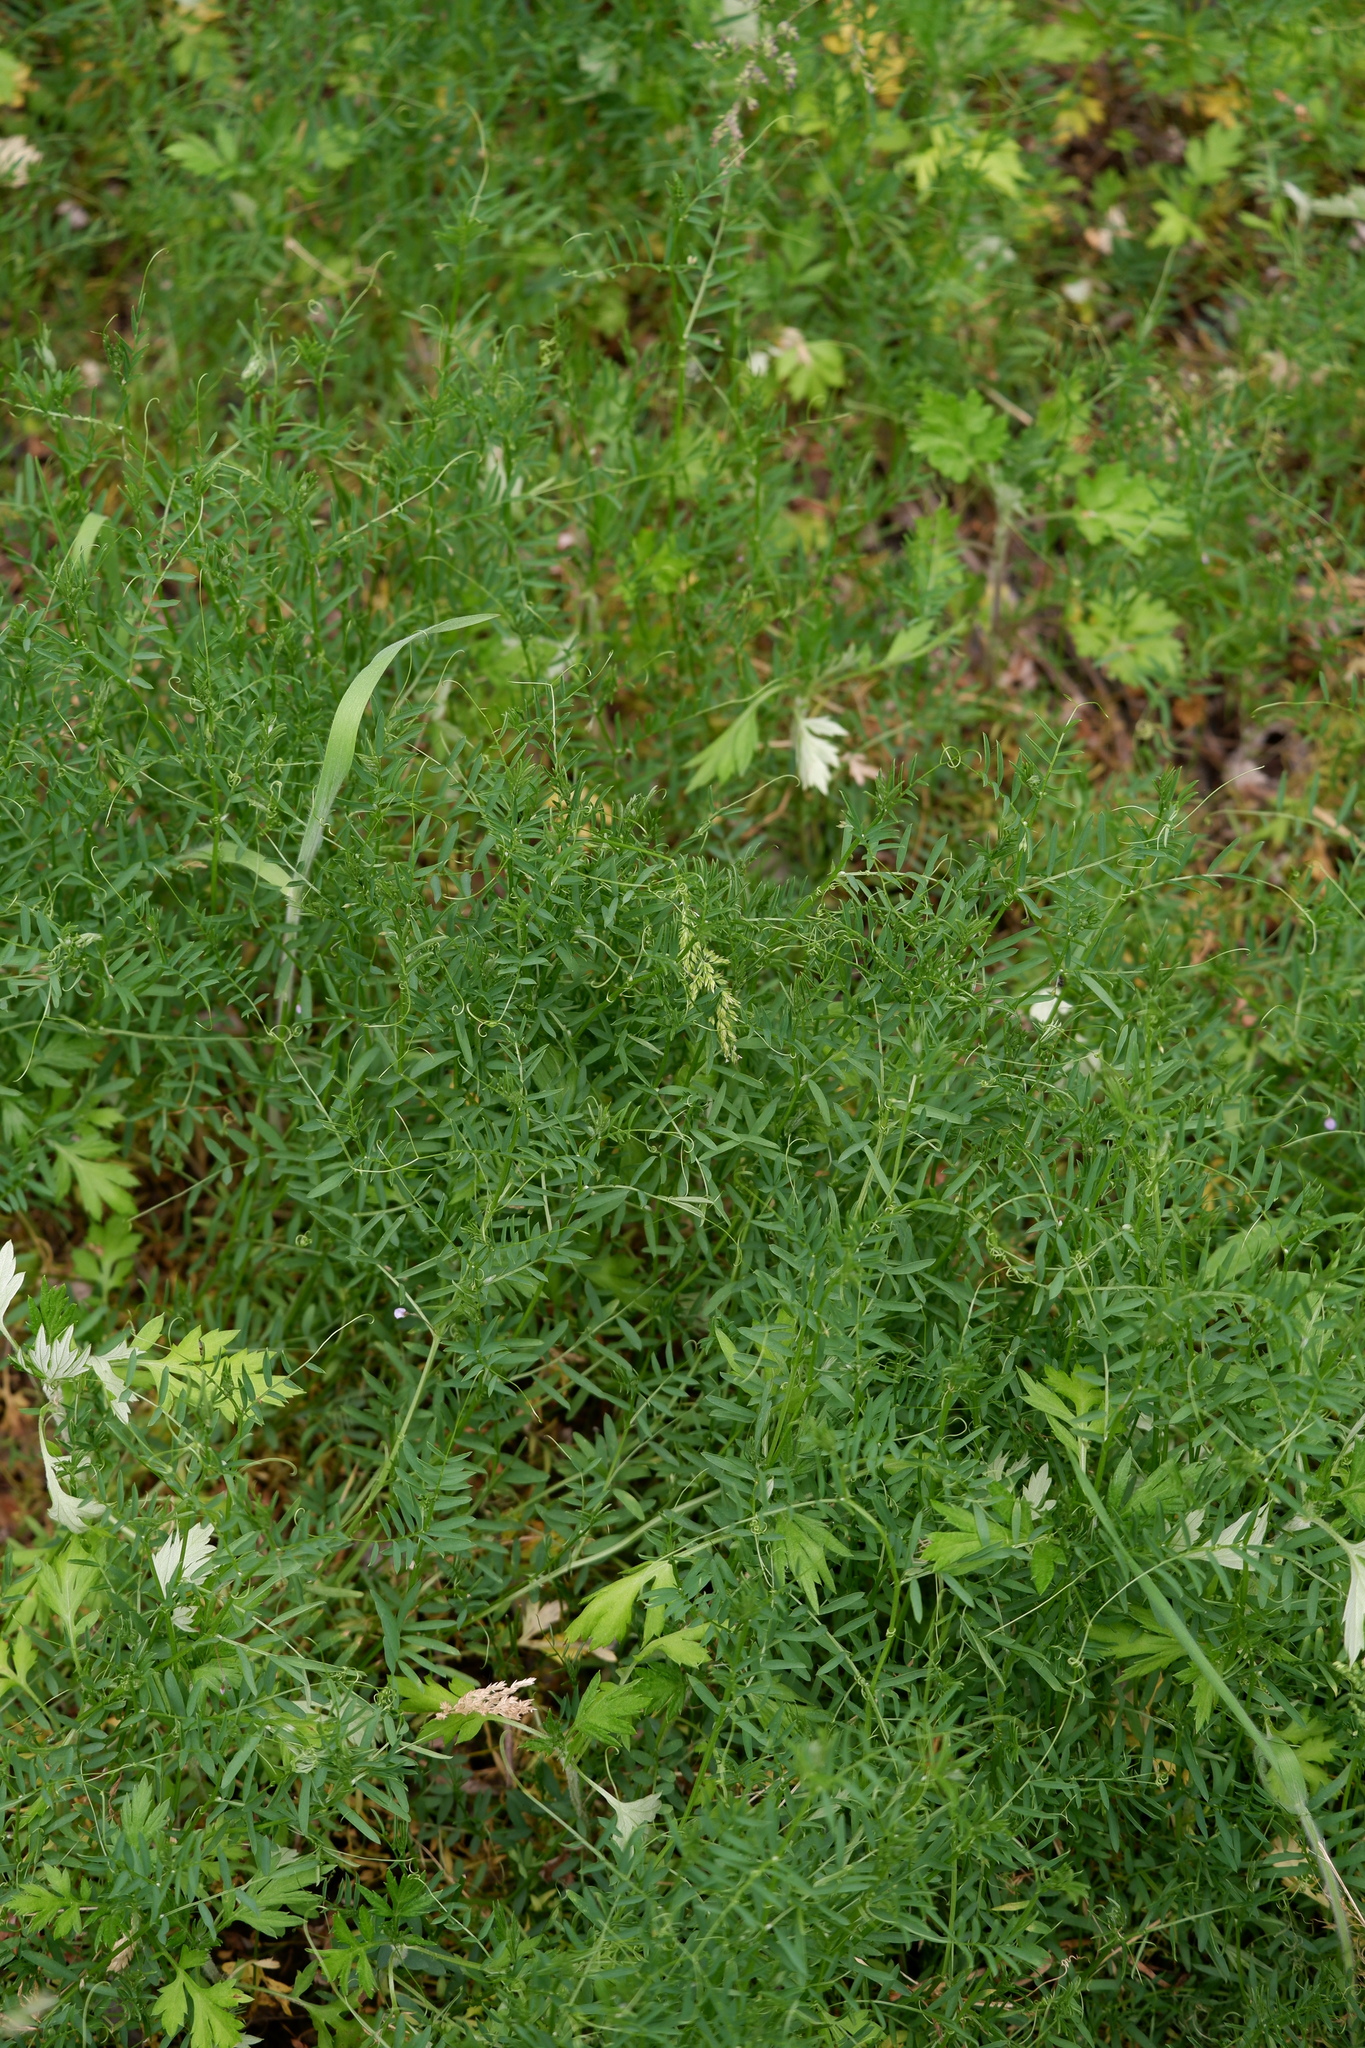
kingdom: Plantae
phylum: Tracheophyta
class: Magnoliopsida
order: Fabales
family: Fabaceae
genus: Vicia
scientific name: Vicia tetrasperma
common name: Smooth tare
